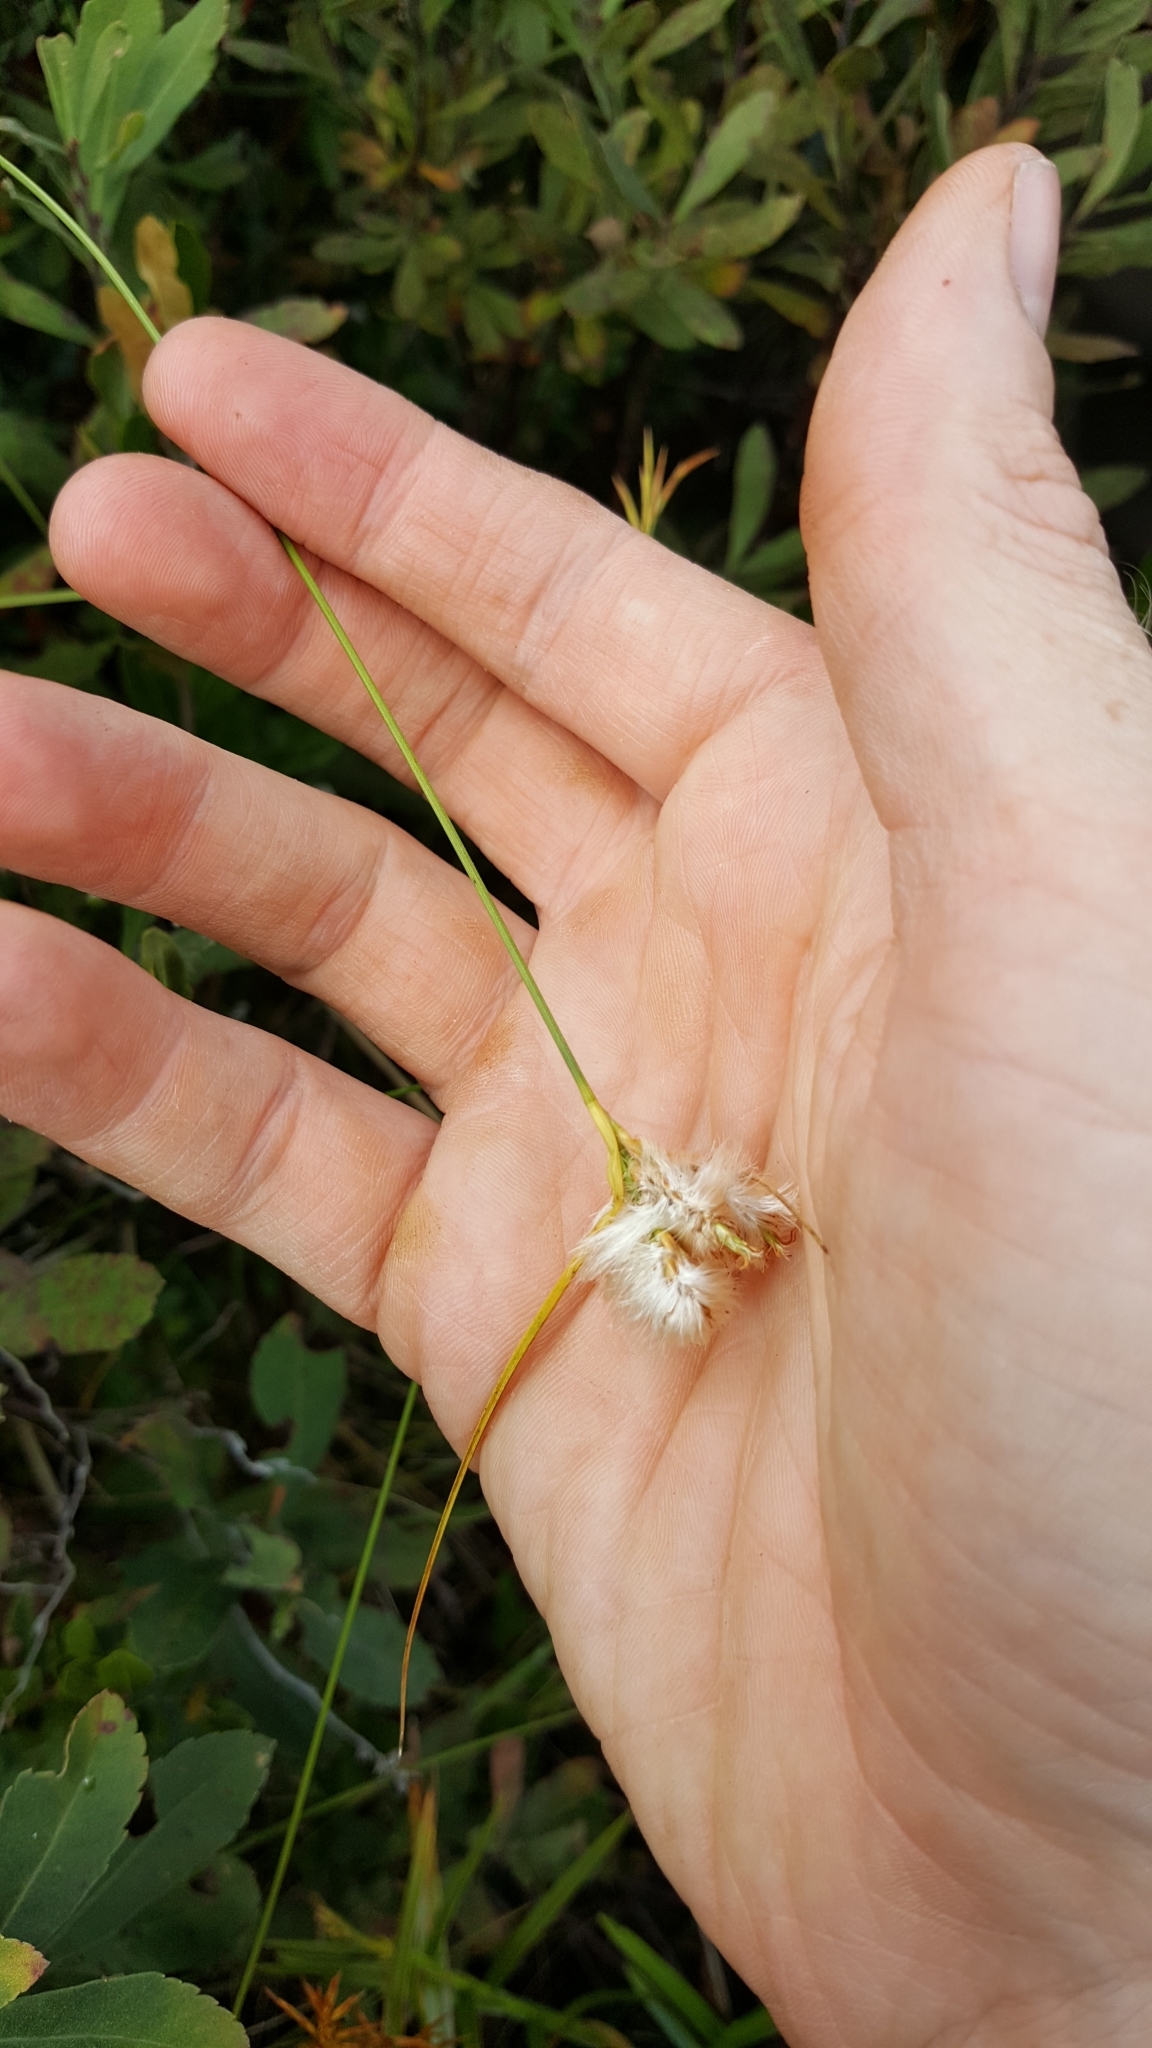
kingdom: Plantae
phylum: Tracheophyta
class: Liliopsida
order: Poales
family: Cyperaceae
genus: Eriophorum
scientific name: Eriophorum virginicum
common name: Tawny cottongrass
